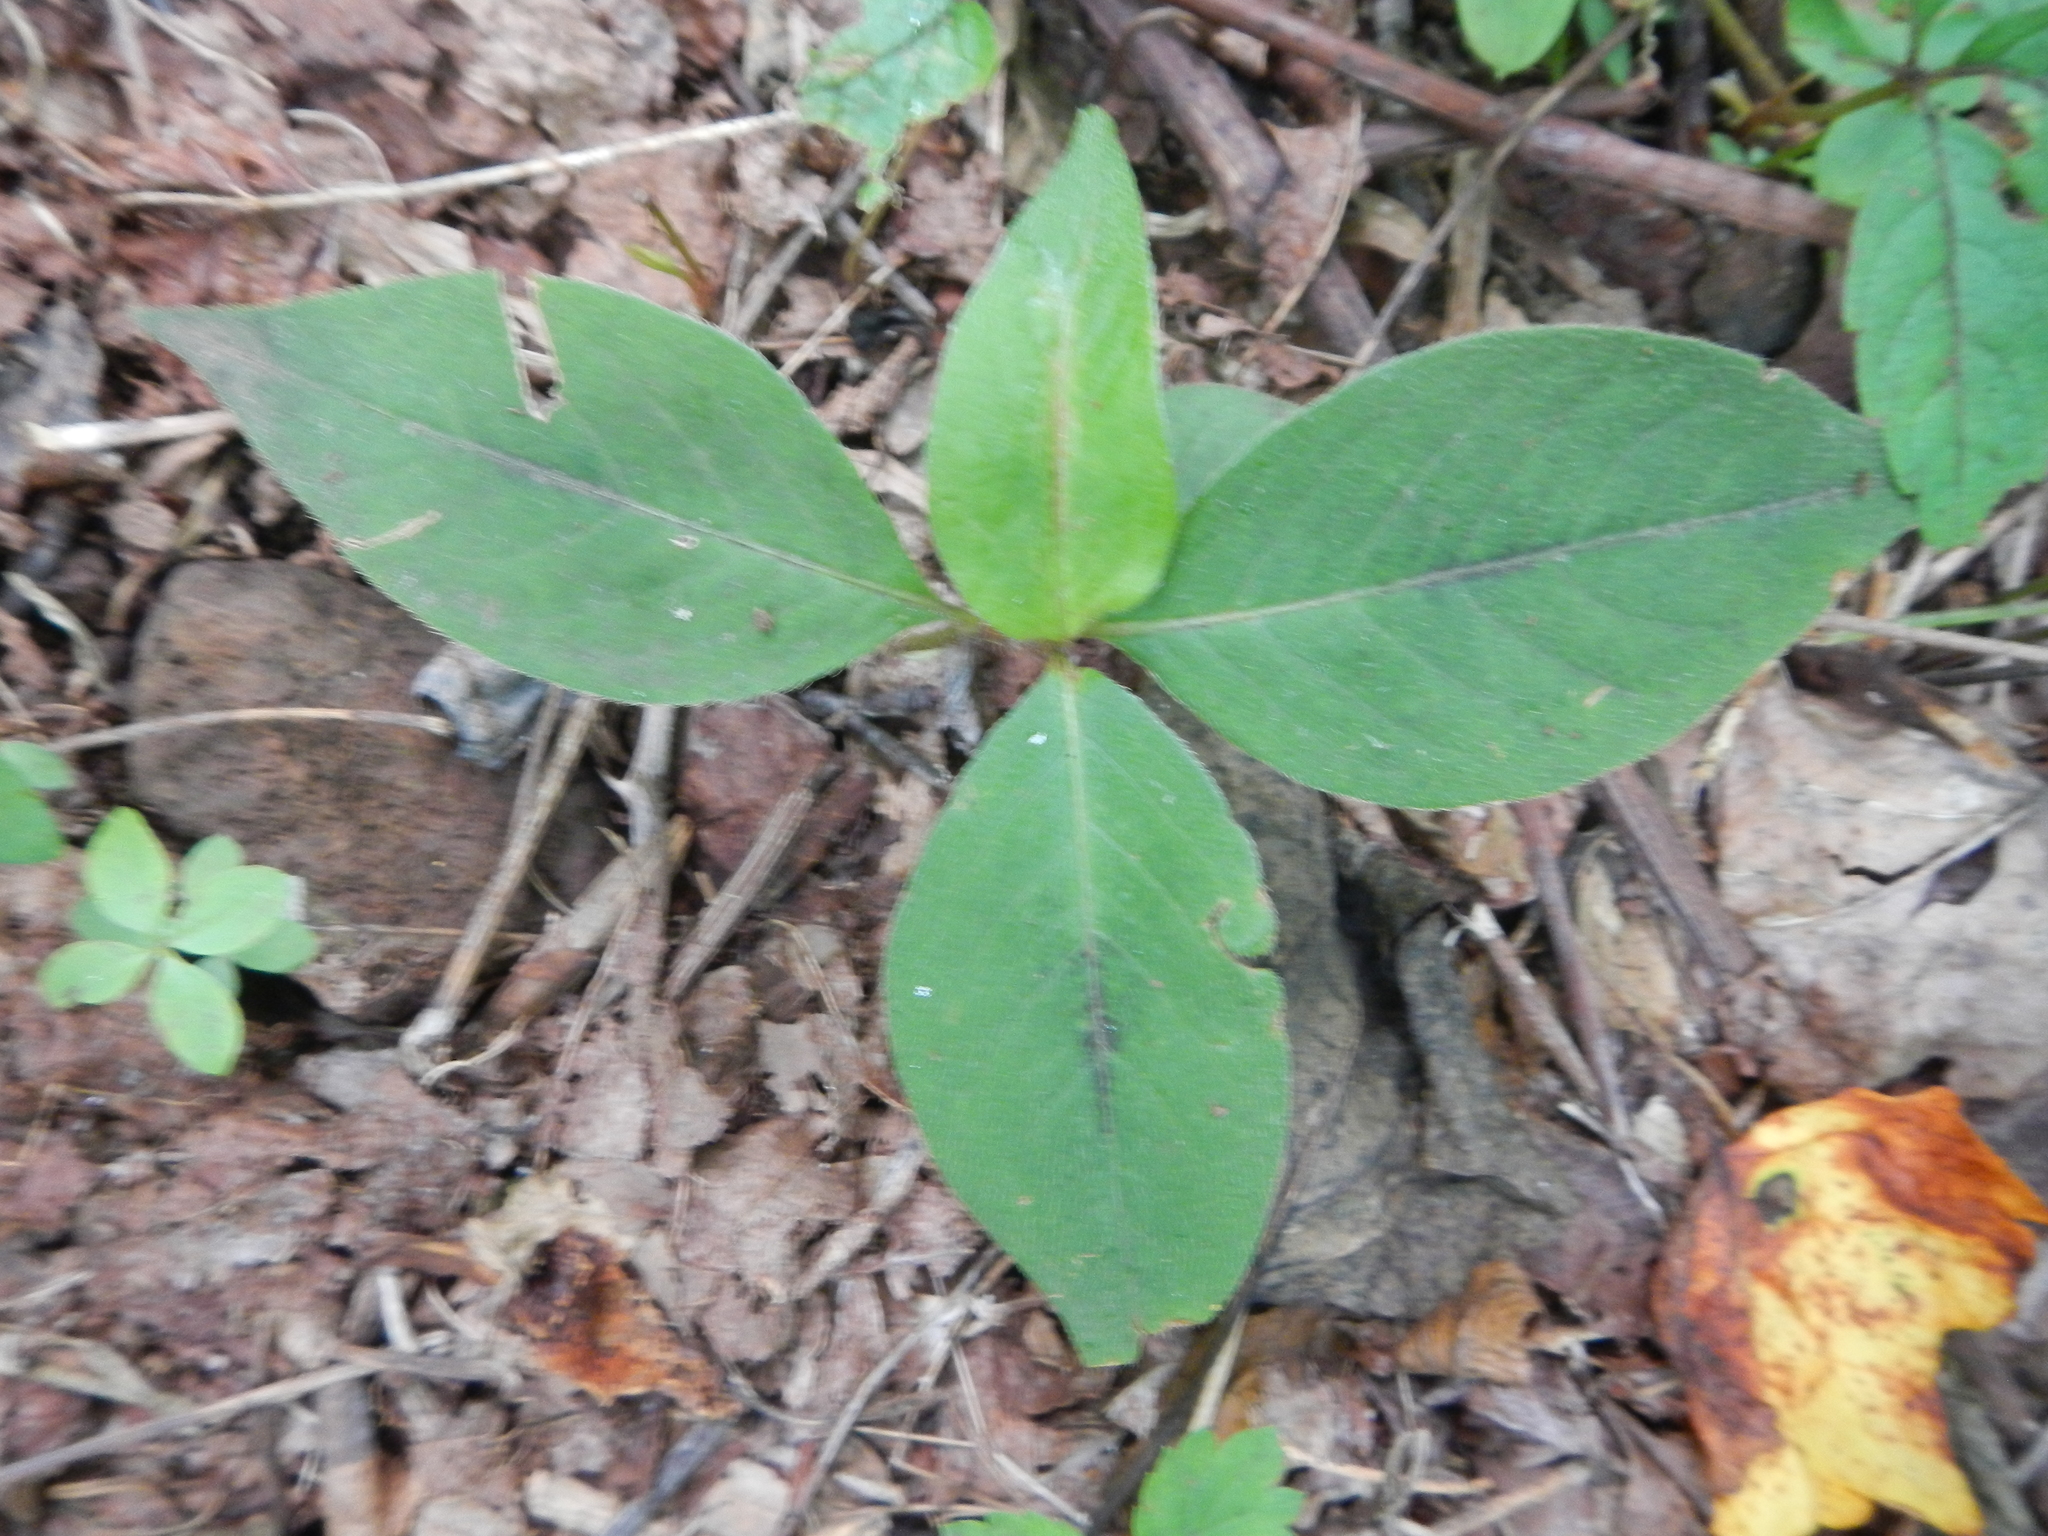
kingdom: Plantae
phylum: Tracheophyta
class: Magnoliopsida
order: Caryophyllales
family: Polygonaceae
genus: Persicaria
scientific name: Persicaria virginiana
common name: Jumpseed
